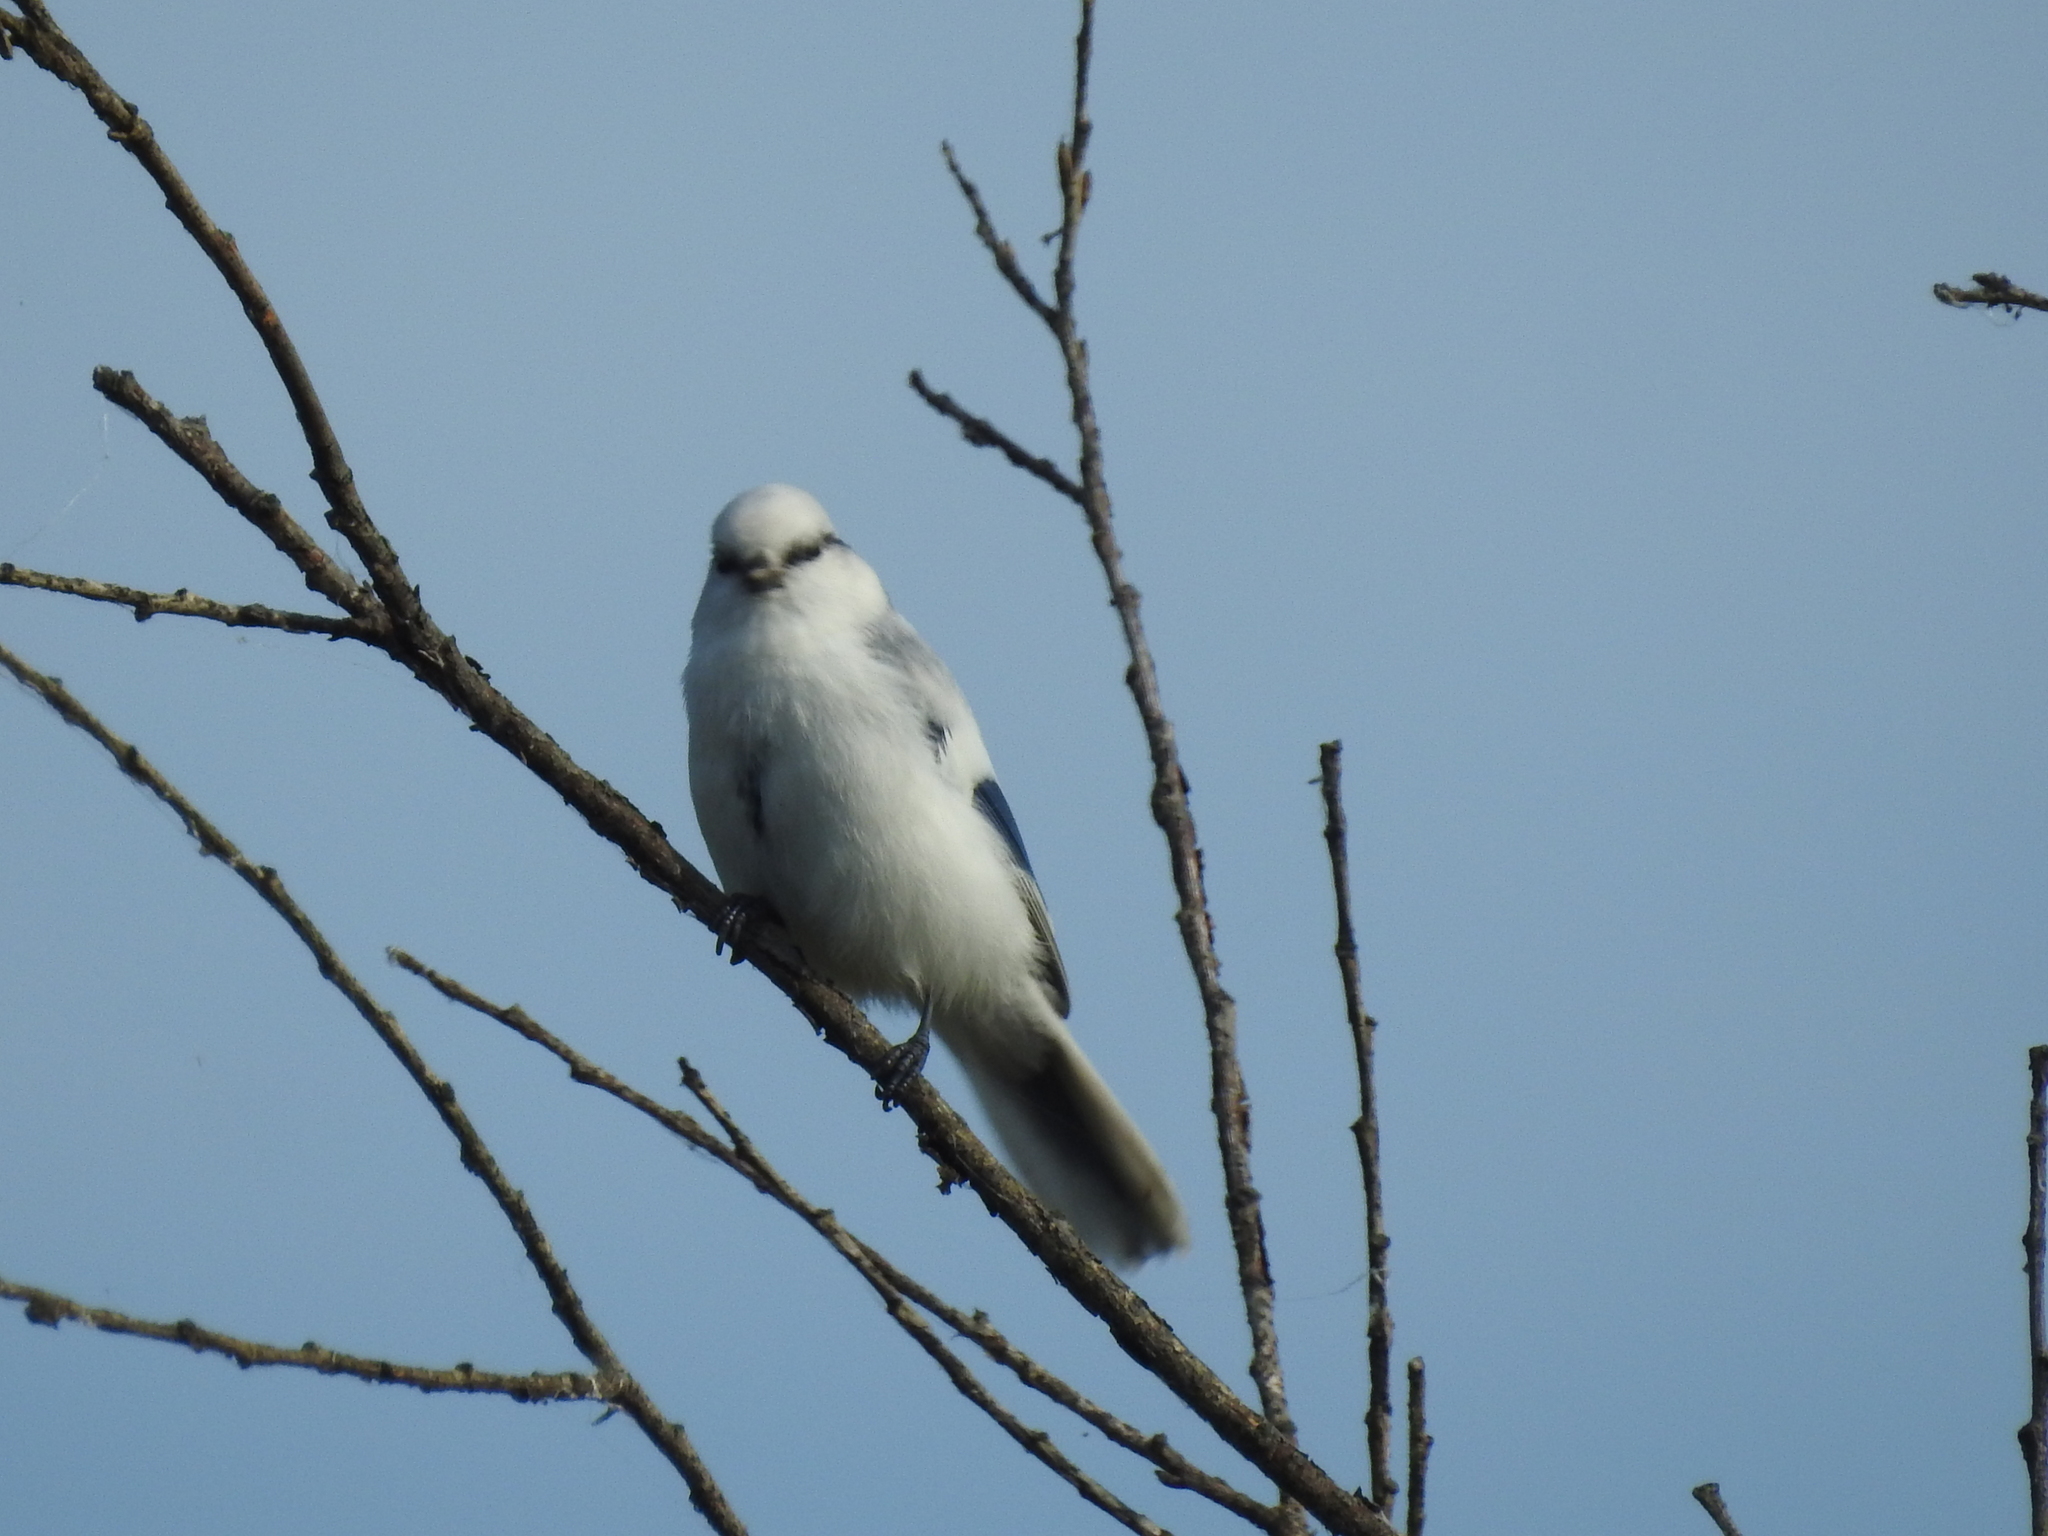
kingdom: Animalia
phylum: Chordata
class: Aves
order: Passeriformes
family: Paridae
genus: Cyanistes
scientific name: Cyanistes cyanus
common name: Azure tit
